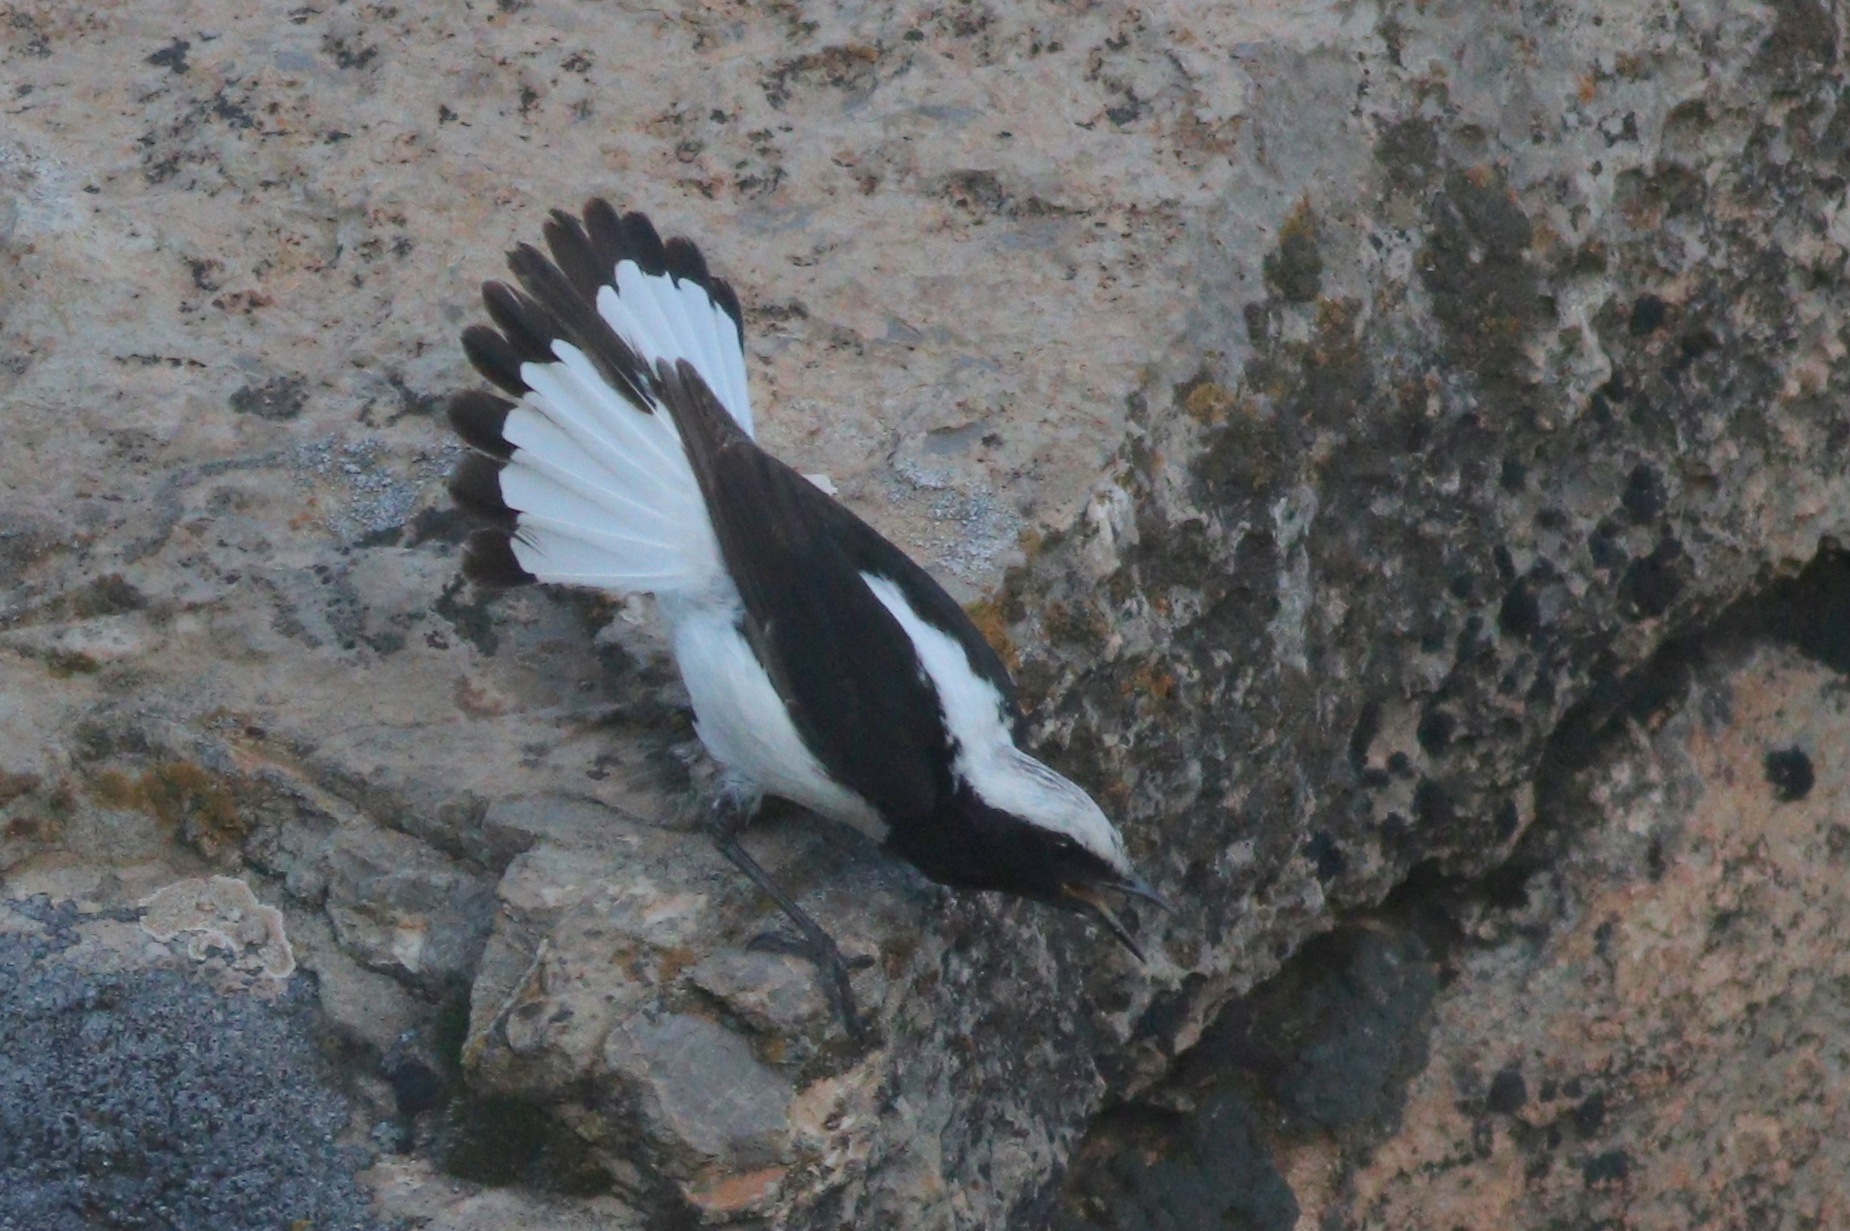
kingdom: Animalia
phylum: Chordata
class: Aves
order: Passeriformes
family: Muscicapidae
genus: Oenanthe
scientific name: Oenanthe finschii
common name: Finsch's wheatear
